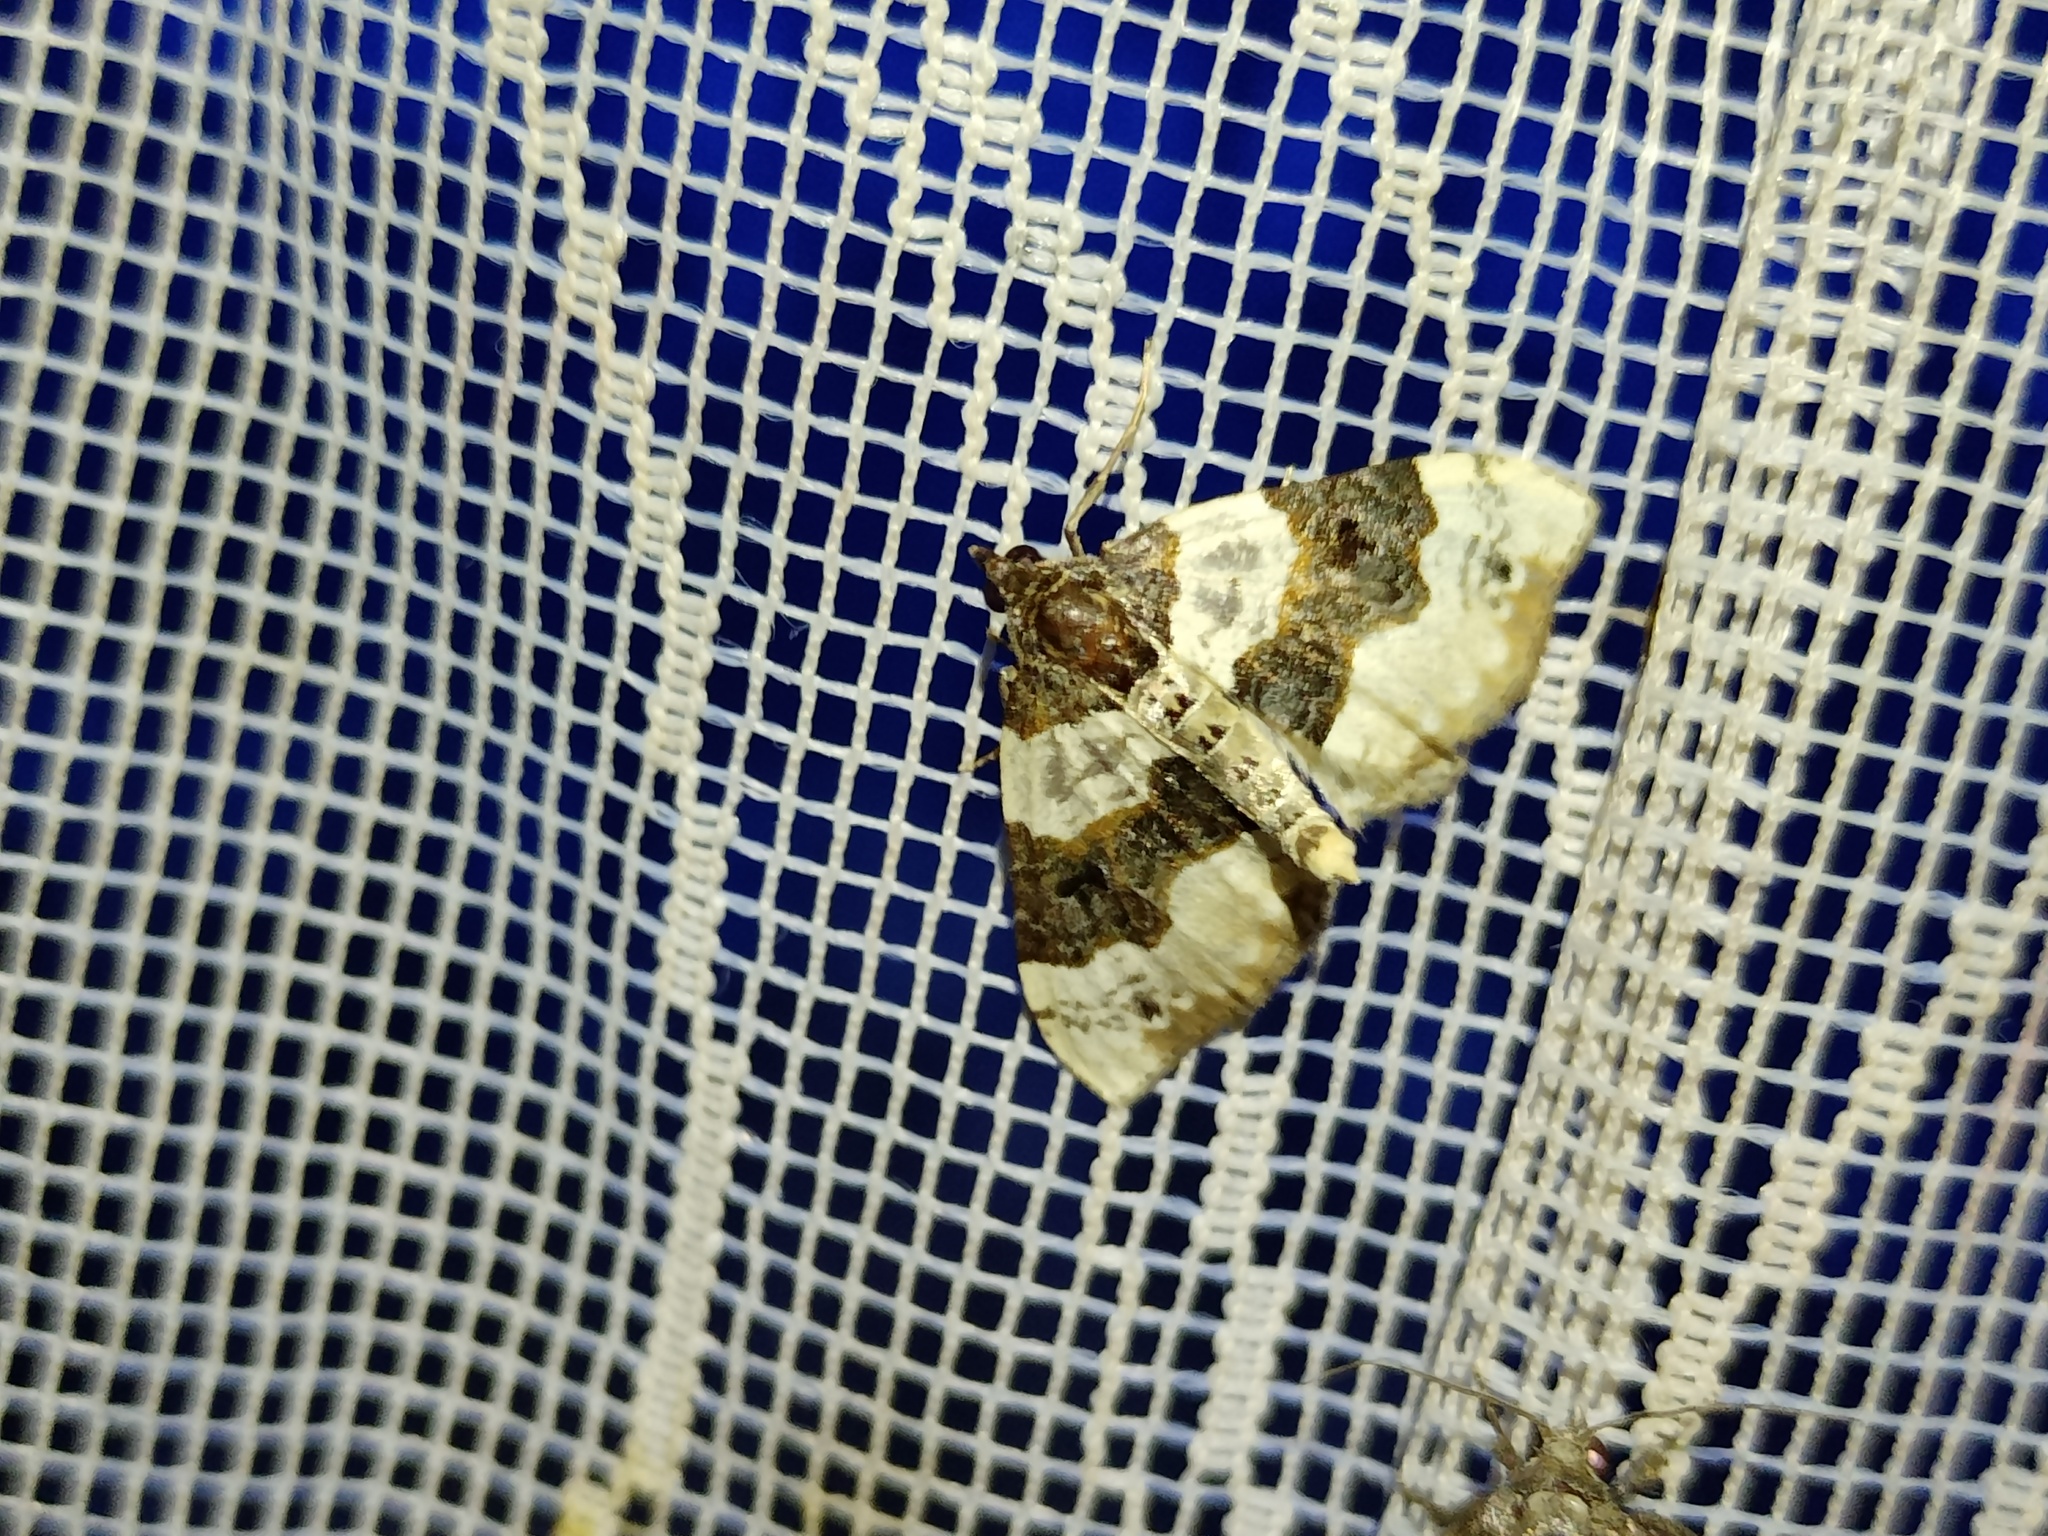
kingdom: Animalia
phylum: Arthropoda
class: Insecta
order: Lepidoptera
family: Geometridae
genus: Cosmorhoe
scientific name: Cosmorhoe ocellata
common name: Purple bar
